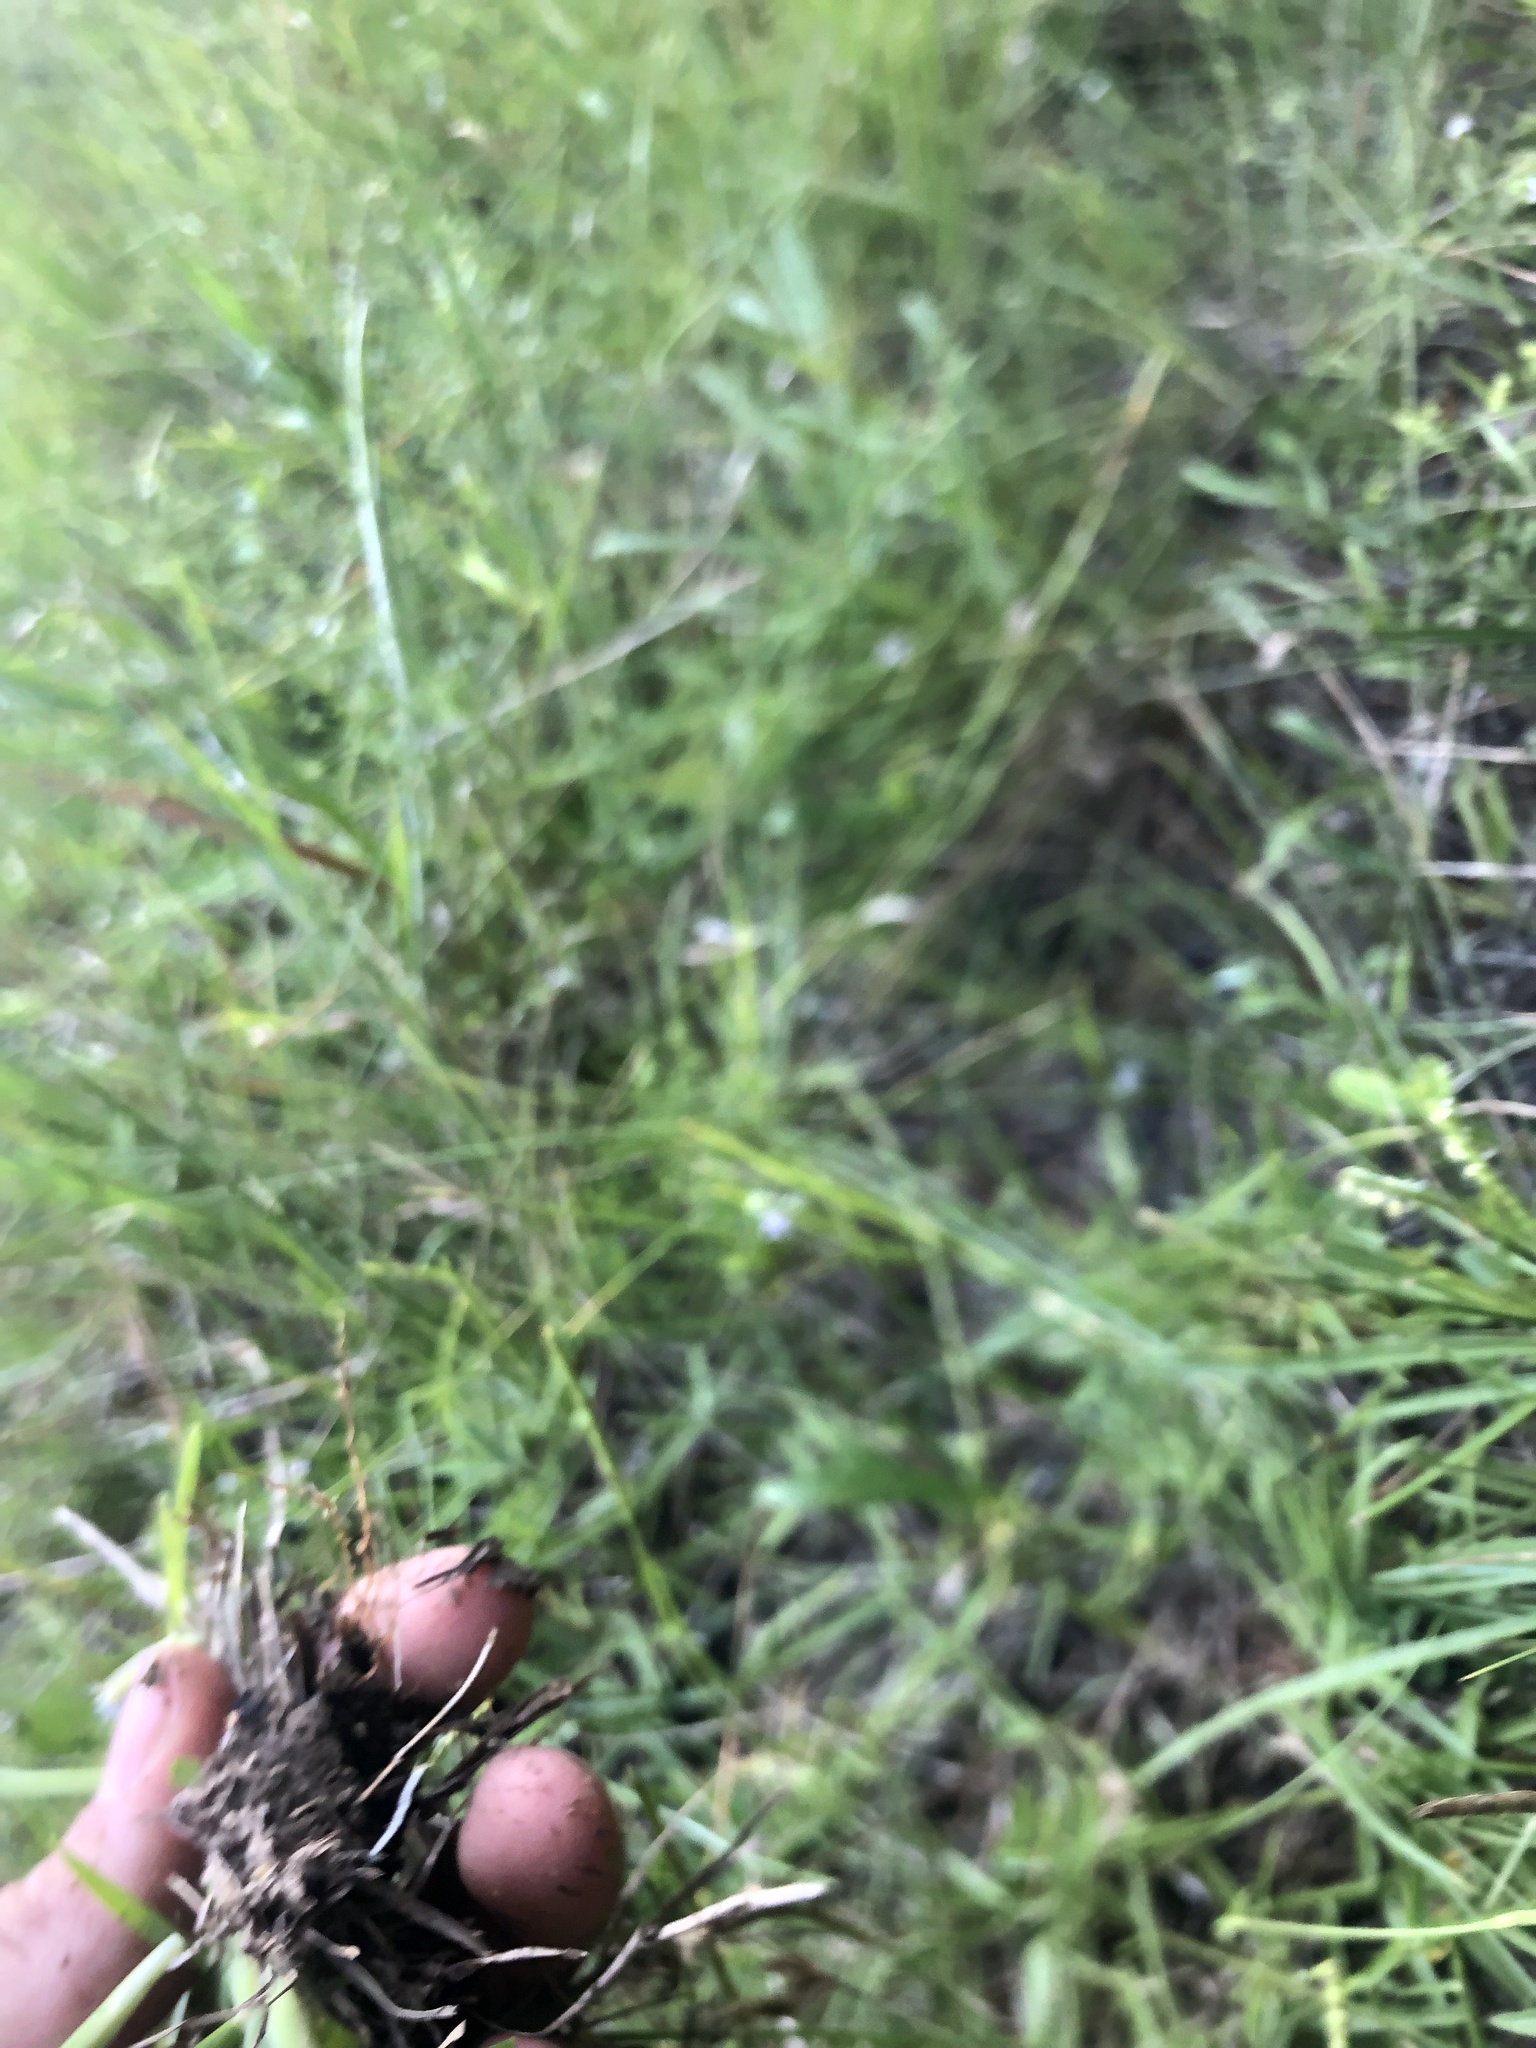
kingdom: Plantae
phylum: Tracheophyta
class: Liliopsida
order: Poales
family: Poaceae
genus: Eremochloa
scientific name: Eremochloa ophiuroides
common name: Centipede grass
